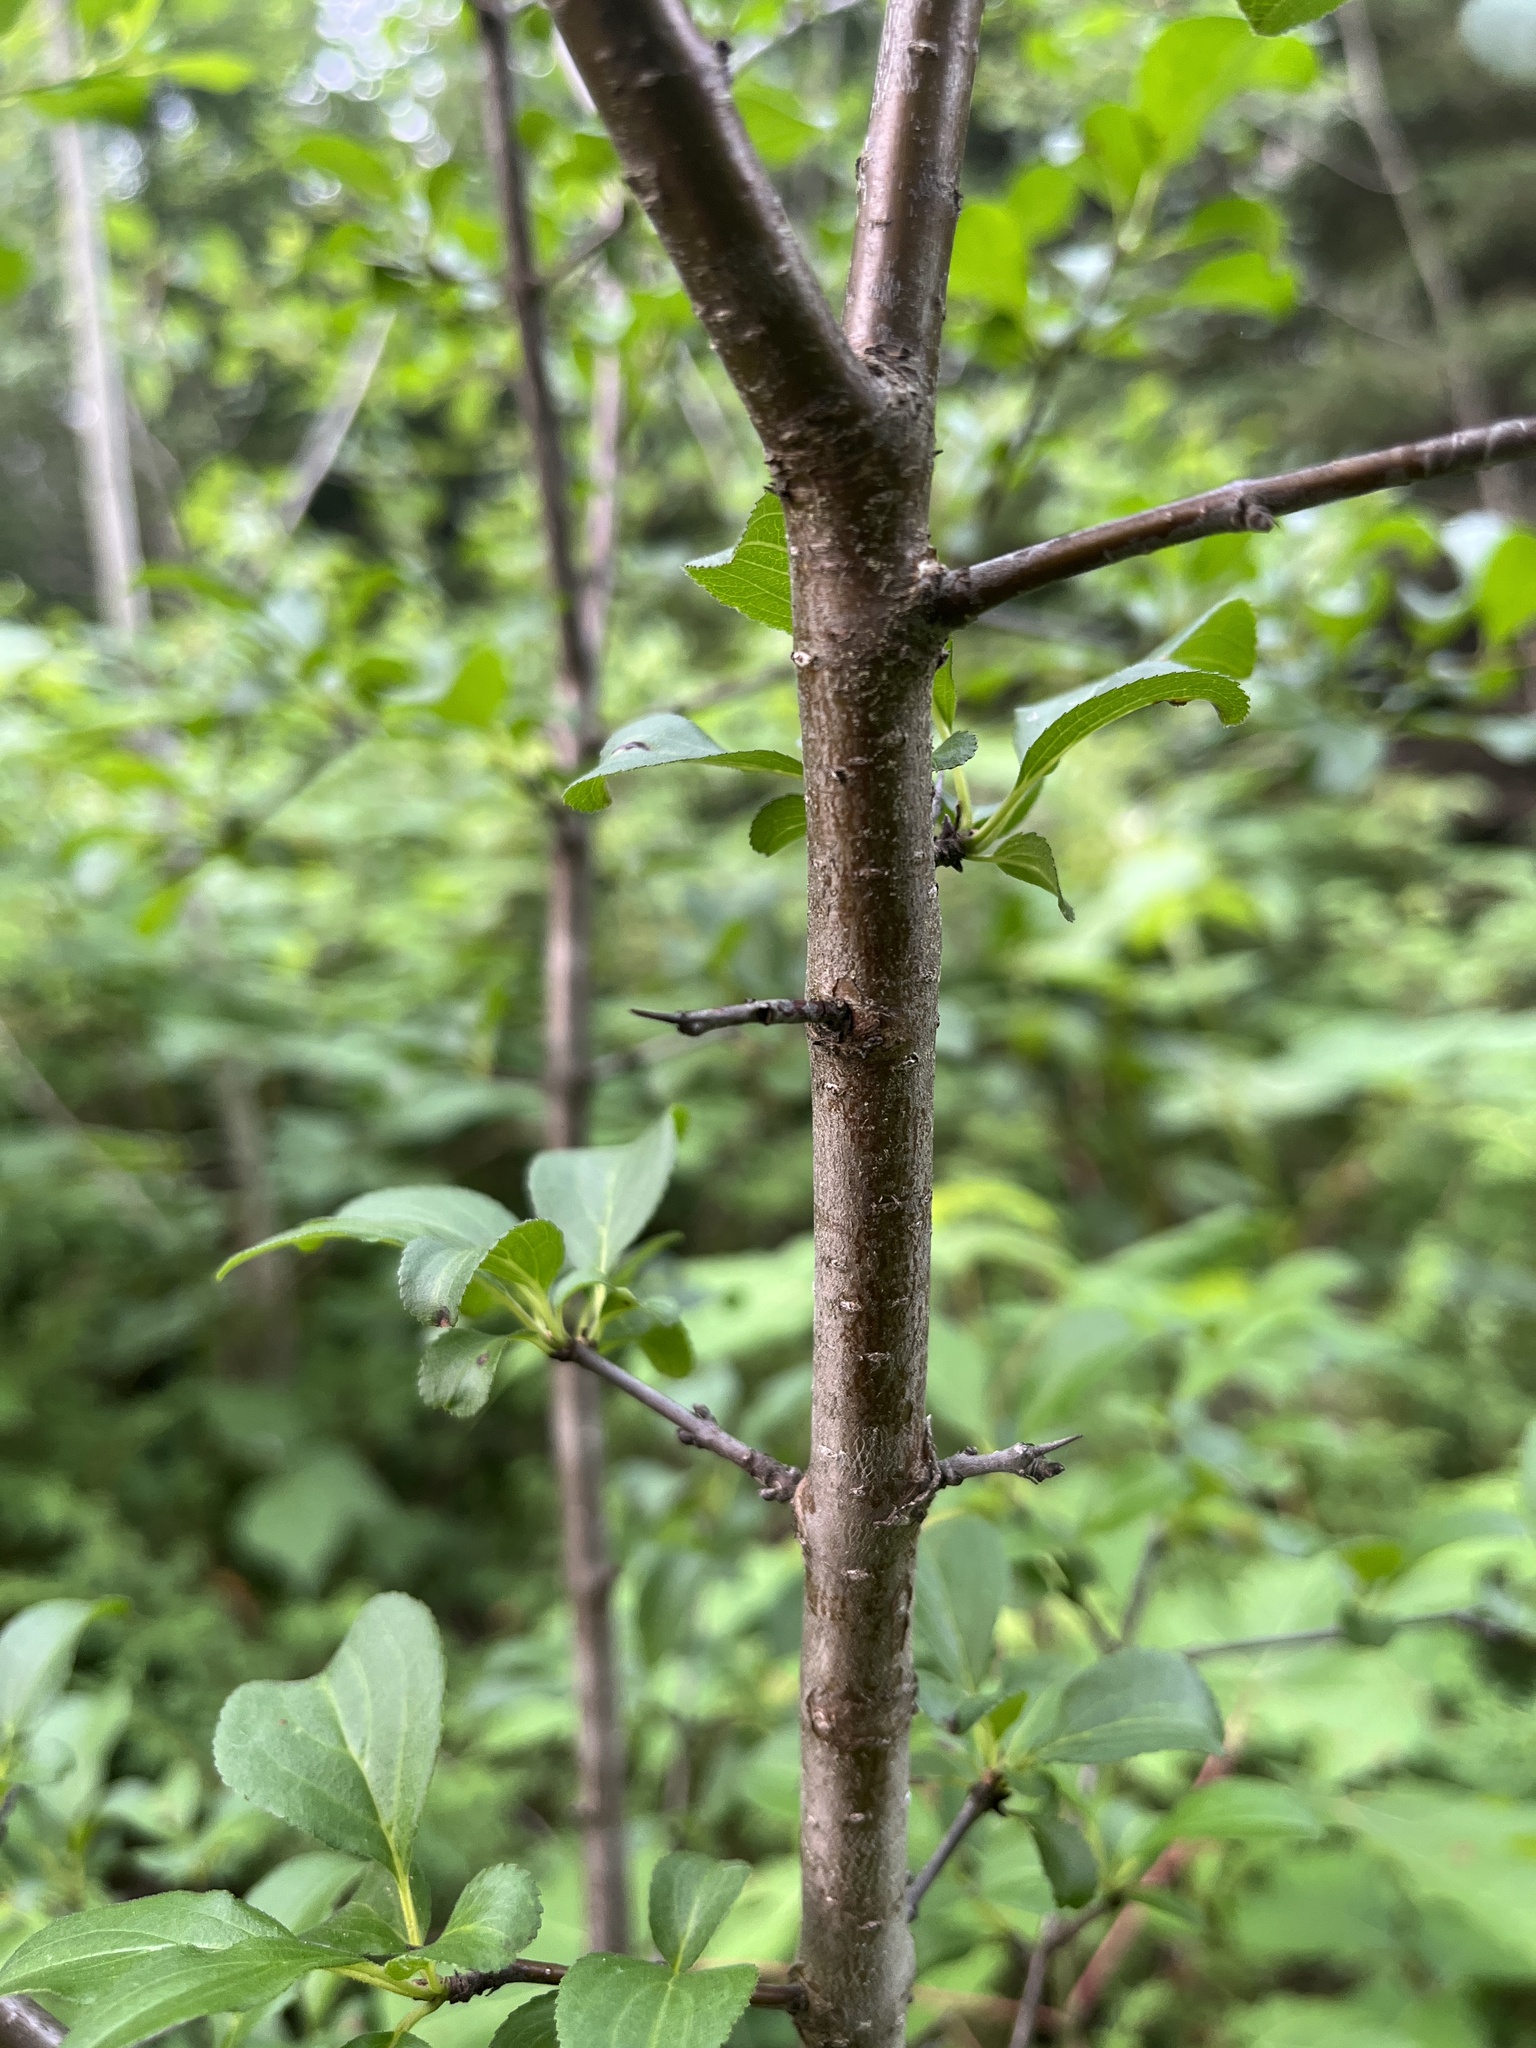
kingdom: Plantae
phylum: Tracheophyta
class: Magnoliopsida
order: Rosales
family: Rhamnaceae
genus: Rhamnus
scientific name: Rhamnus cathartica
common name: Common buckthorn
